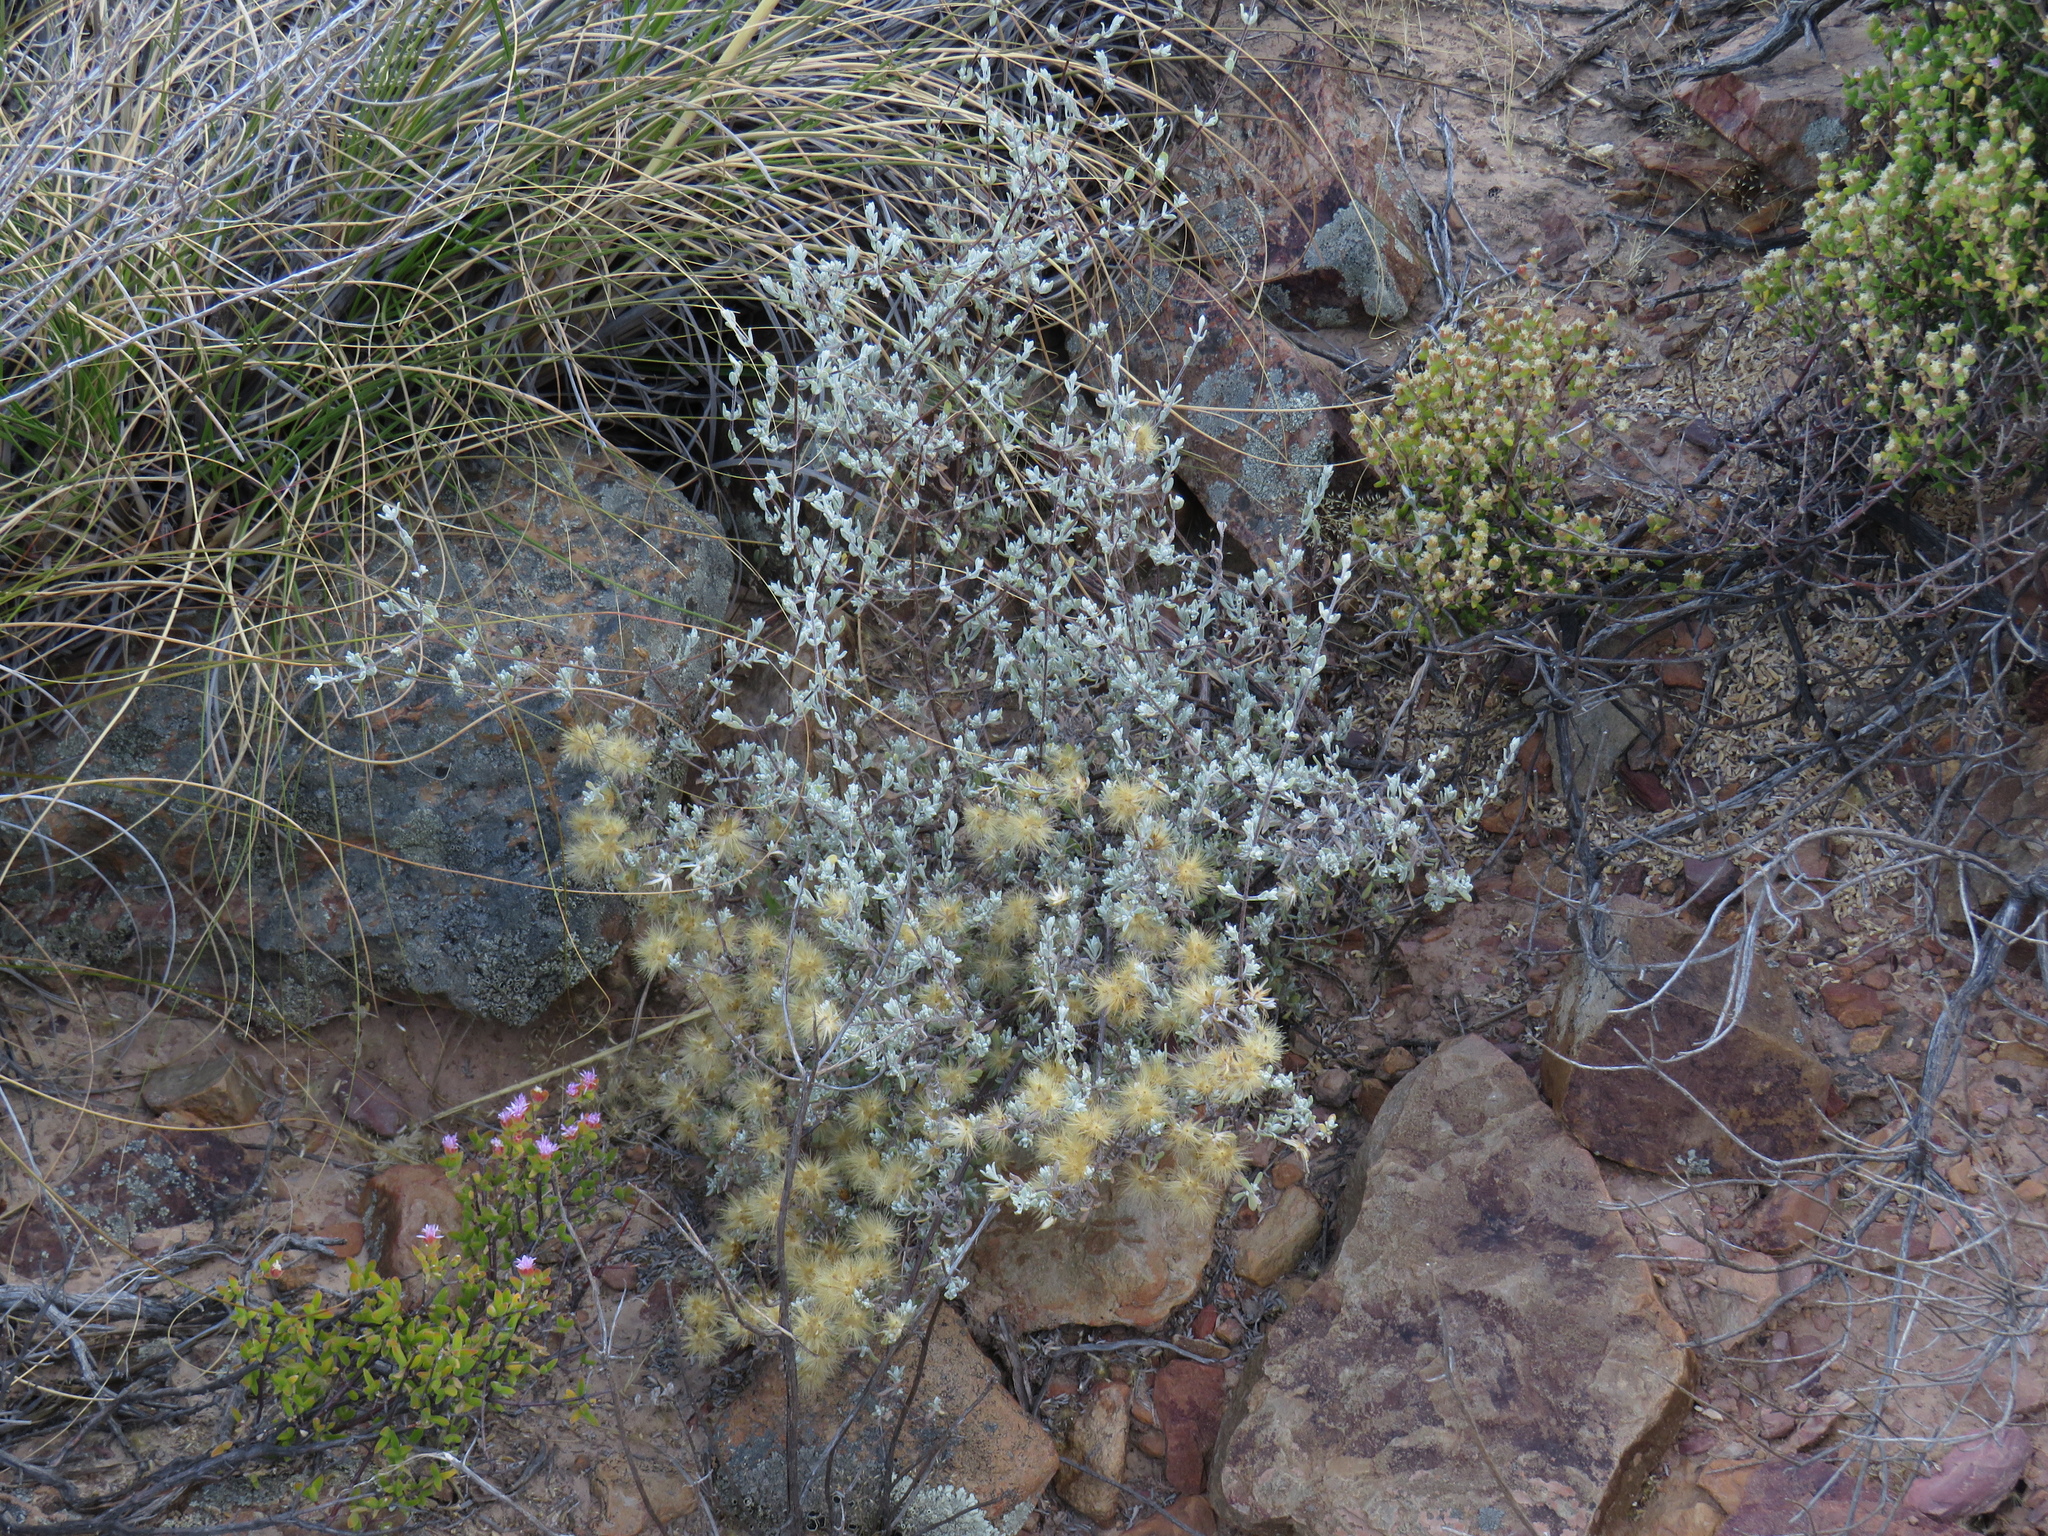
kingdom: Plantae
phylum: Tracheophyta
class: Magnoliopsida
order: Asterales
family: Asteraceae
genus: Pteronia
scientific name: Pteronia incana
